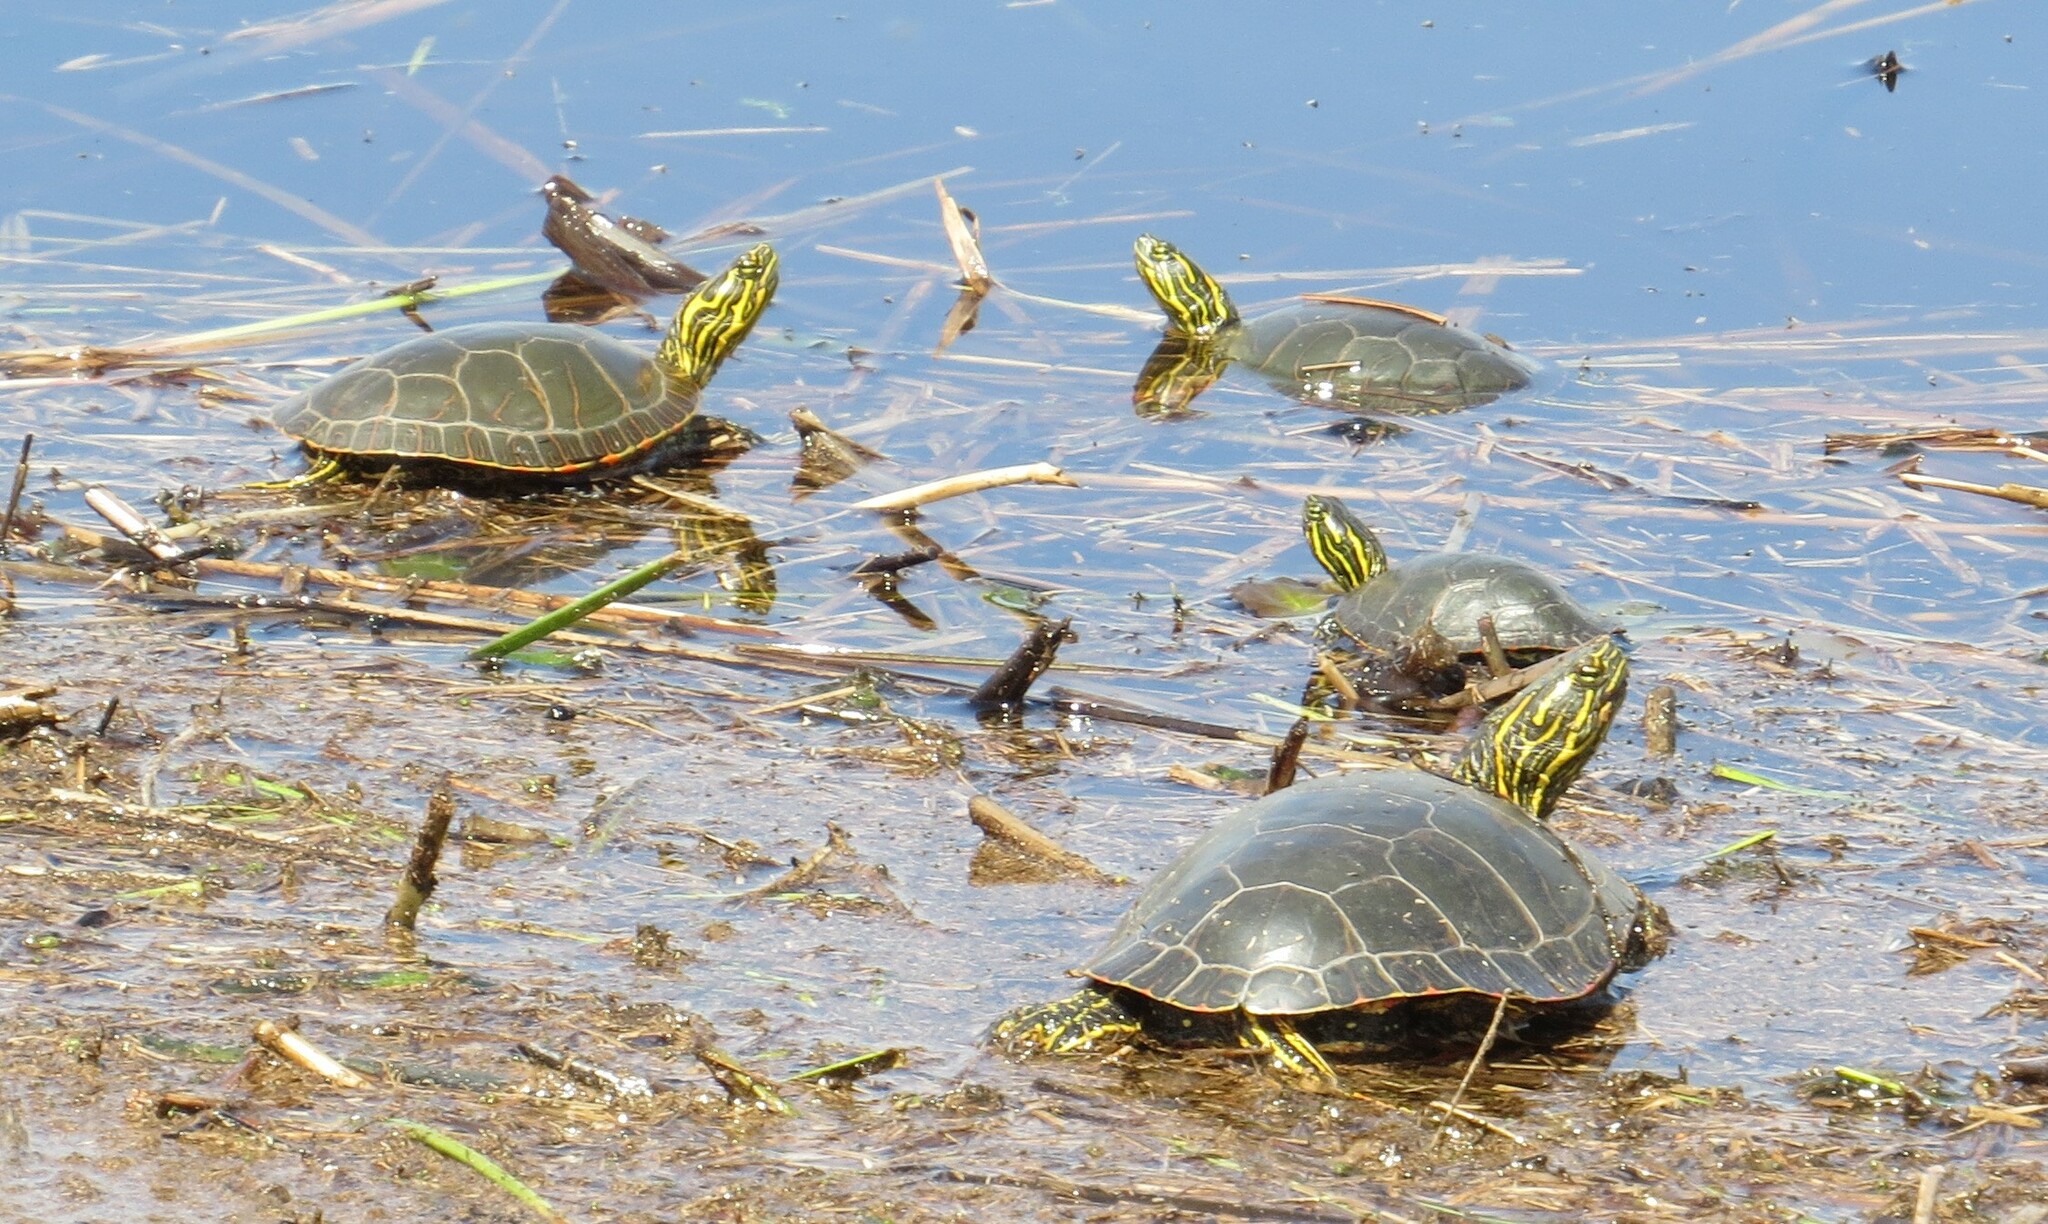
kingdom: Animalia
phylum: Chordata
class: Testudines
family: Emydidae
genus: Chrysemys
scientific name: Chrysemys picta
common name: Painted turtle
